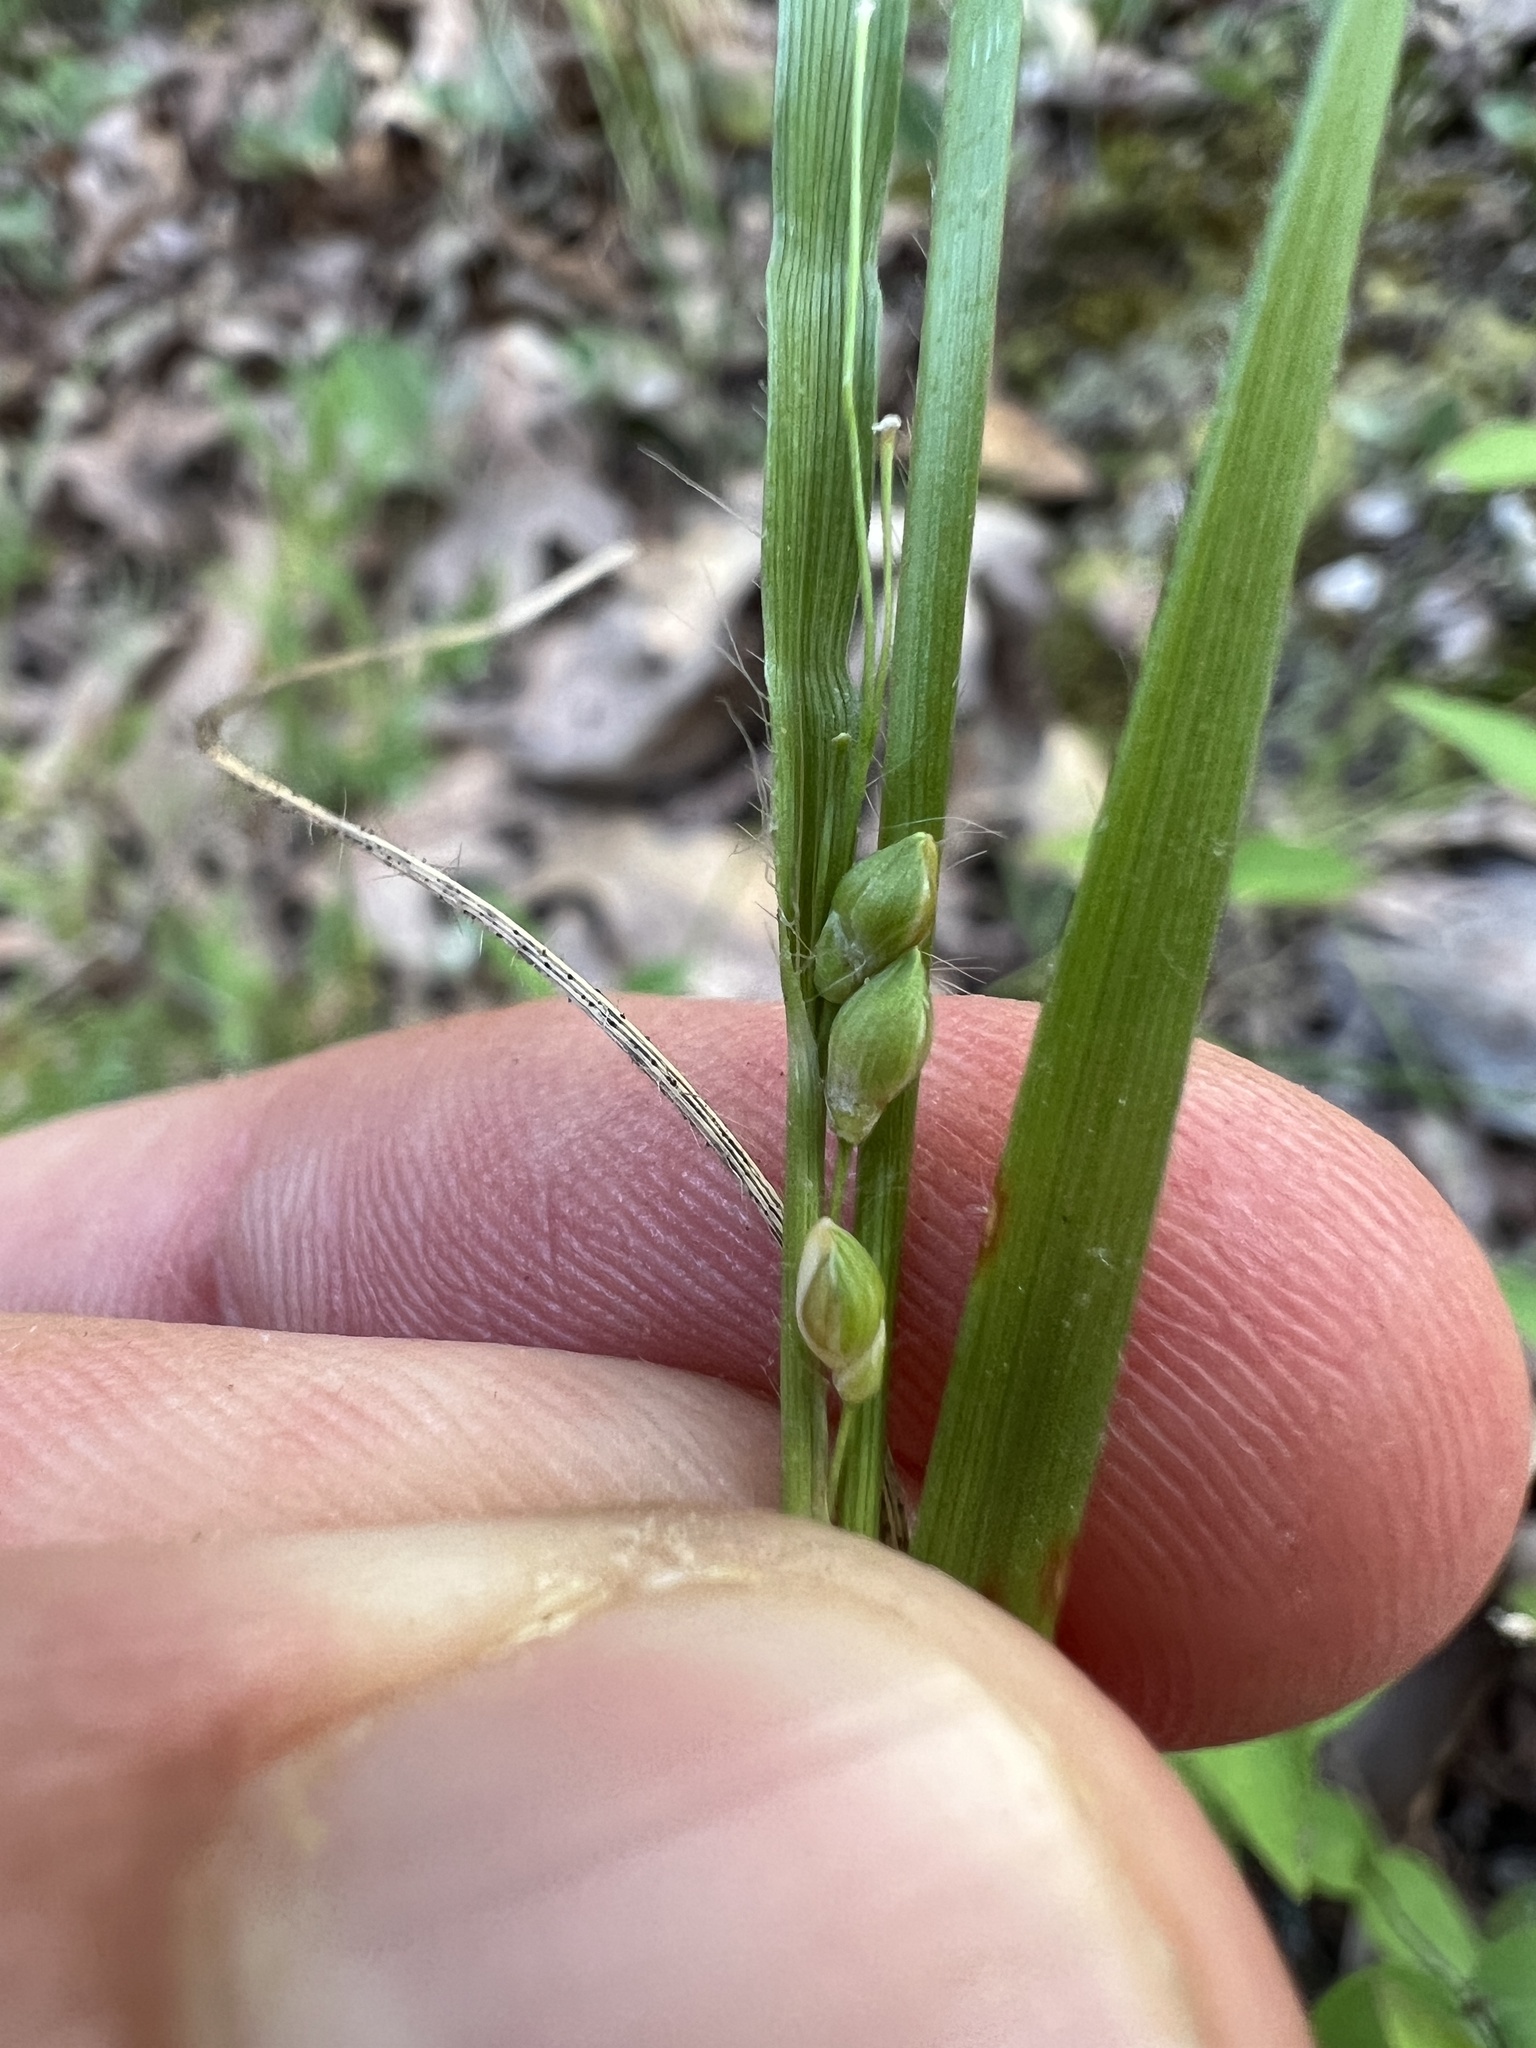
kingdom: Plantae
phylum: Tracheophyta
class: Liliopsida
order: Poales
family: Poaceae
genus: Dichanthelium
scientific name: Dichanthelium depauperatum
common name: Depauperate panicgrass
